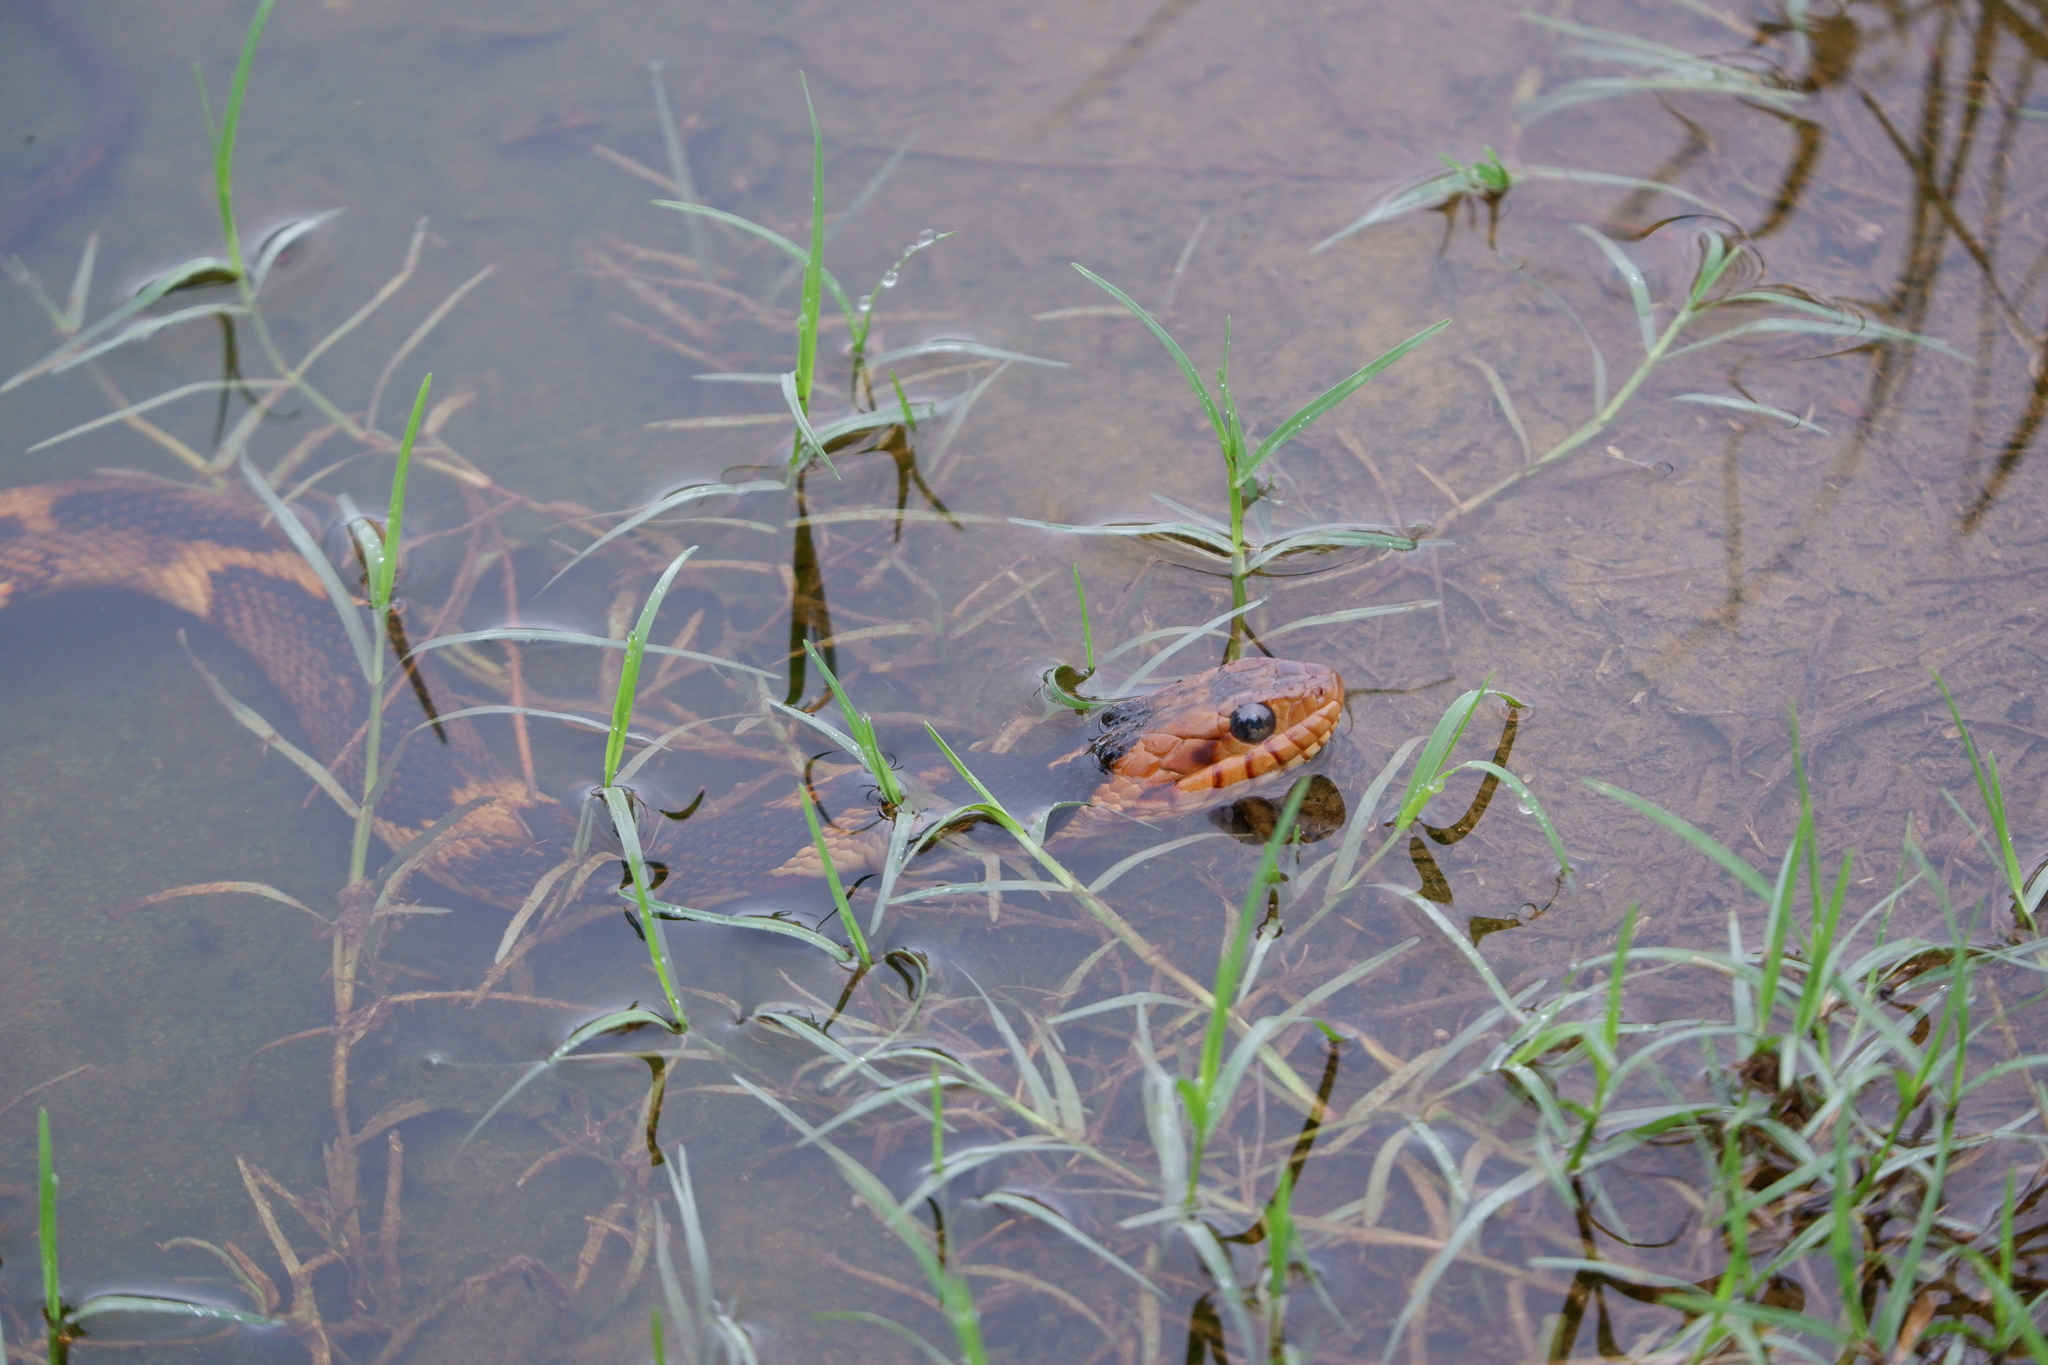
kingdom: Animalia
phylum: Chordata
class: Squamata
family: Colubridae
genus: Nerodia
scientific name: Nerodia fasciata
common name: Southern water snake
